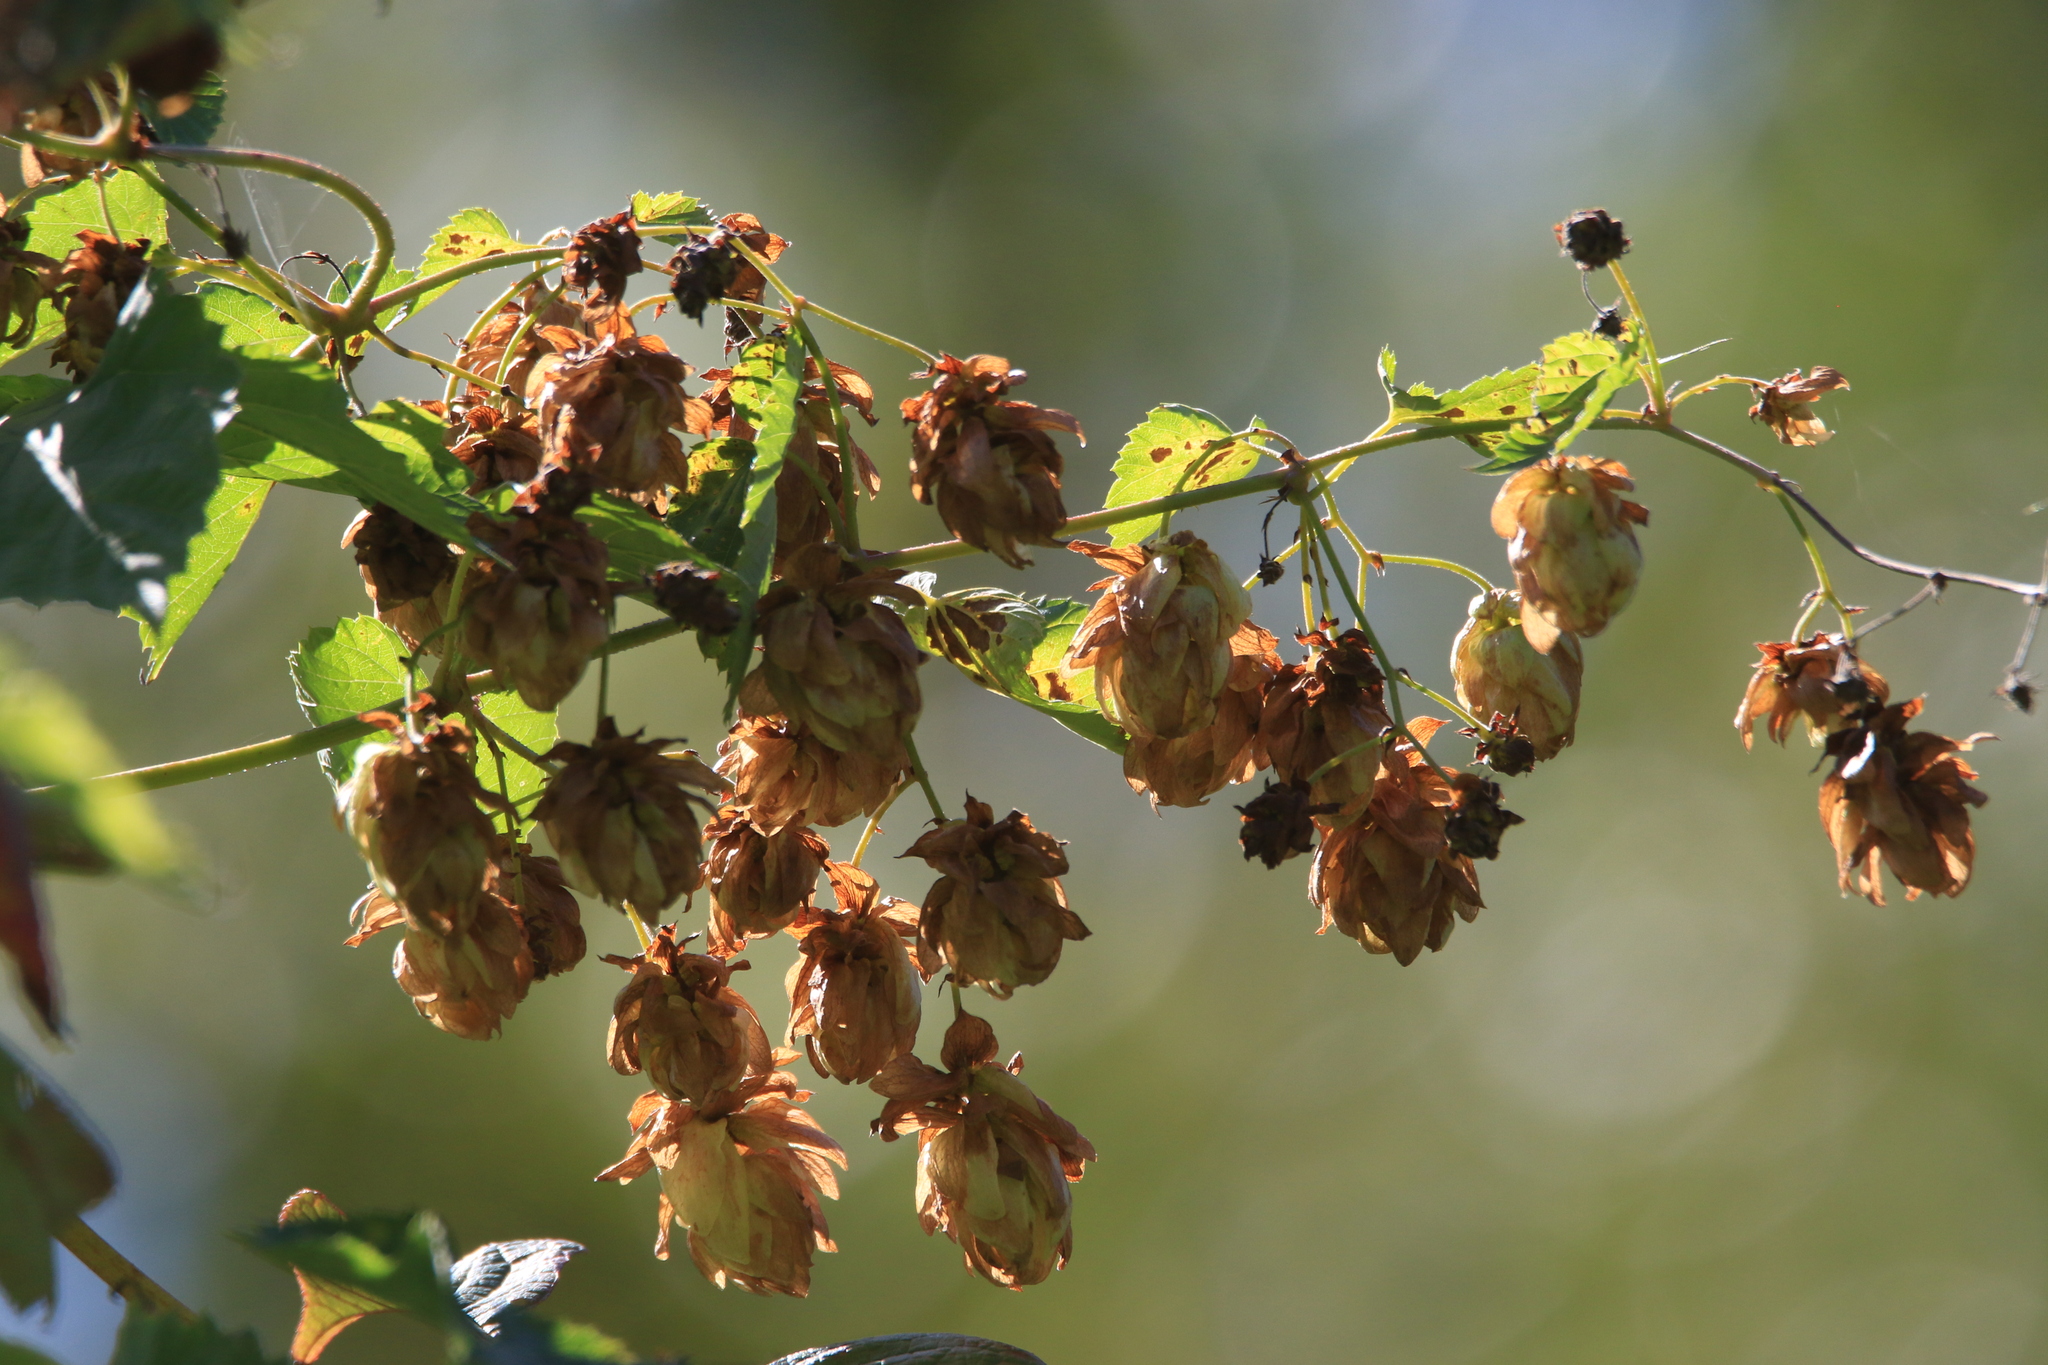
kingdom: Plantae
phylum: Tracheophyta
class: Magnoliopsida
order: Rosales
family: Cannabaceae
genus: Humulus
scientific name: Humulus lupulus
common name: Hop
